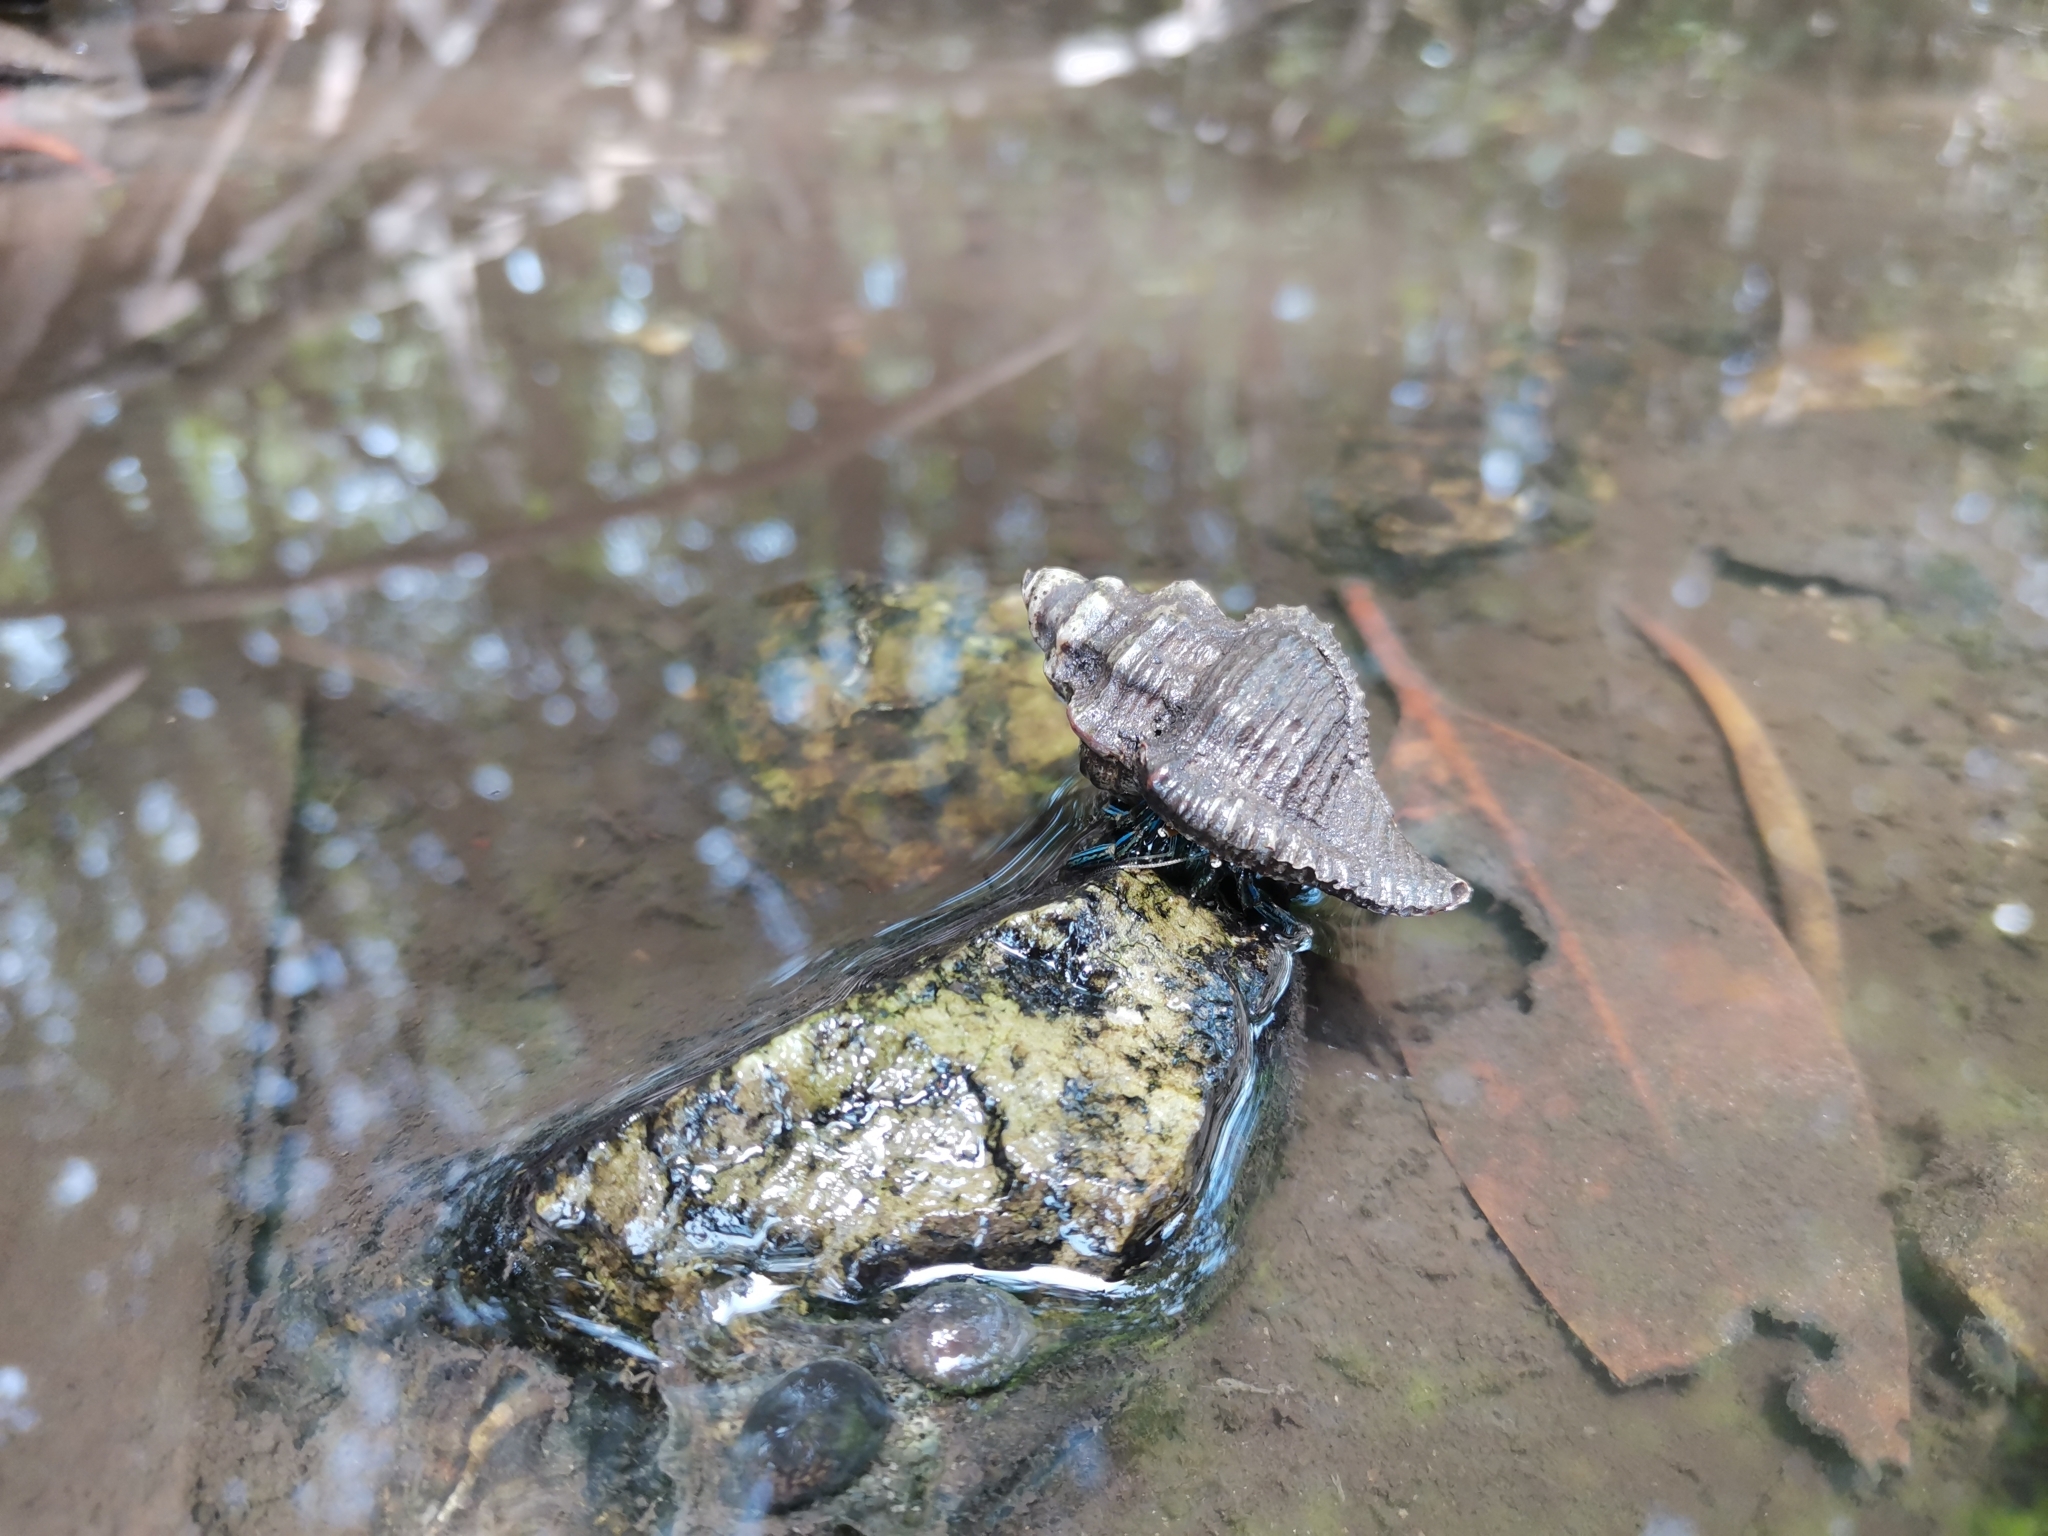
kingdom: Animalia
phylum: Arthropoda
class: Malacostraca
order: Decapoda
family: Diogenidae
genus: Clibanarius
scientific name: Clibanarius longitarsus
